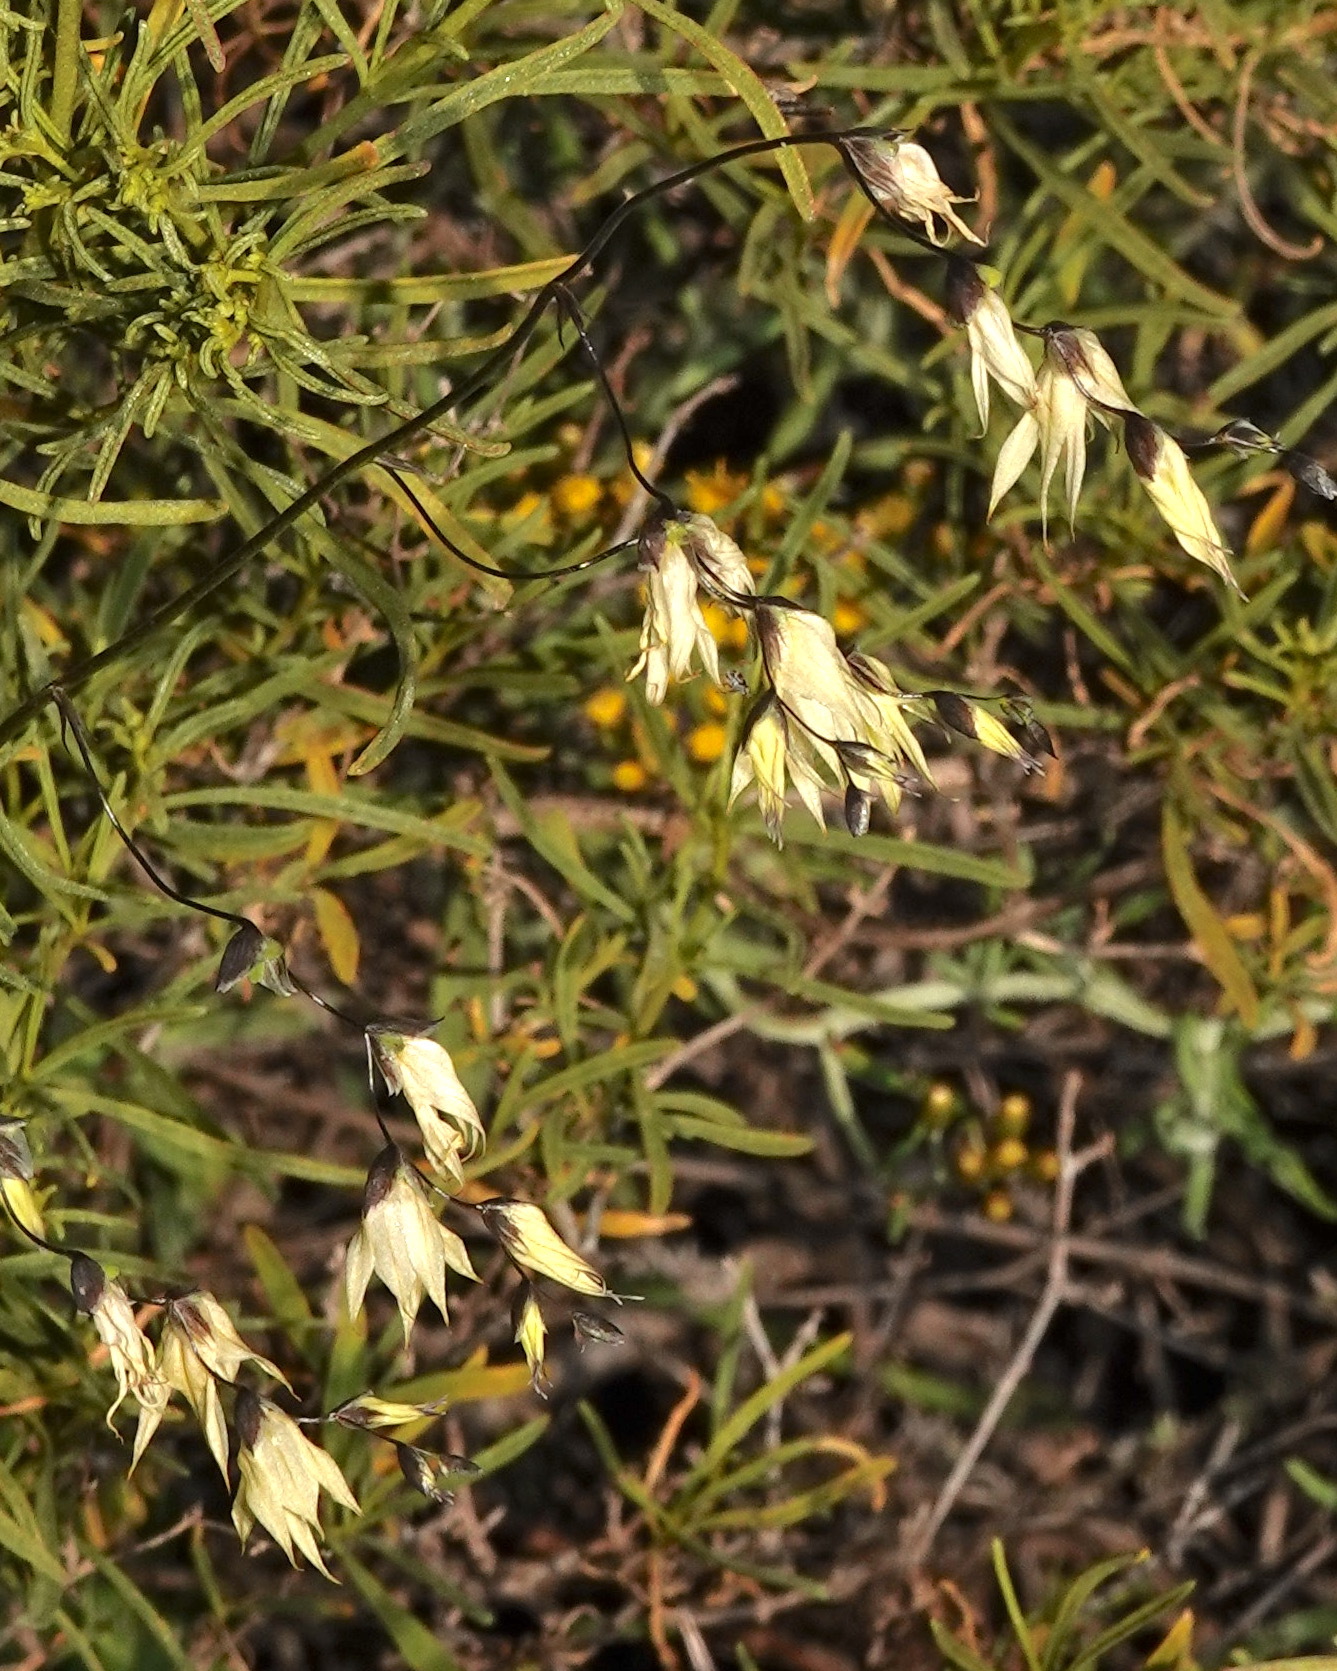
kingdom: Plantae
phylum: Tracheophyta
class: Liliopsida
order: Asparagales
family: Iridaceae
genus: Melasphaerula
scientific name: Melasphaerula graminea
